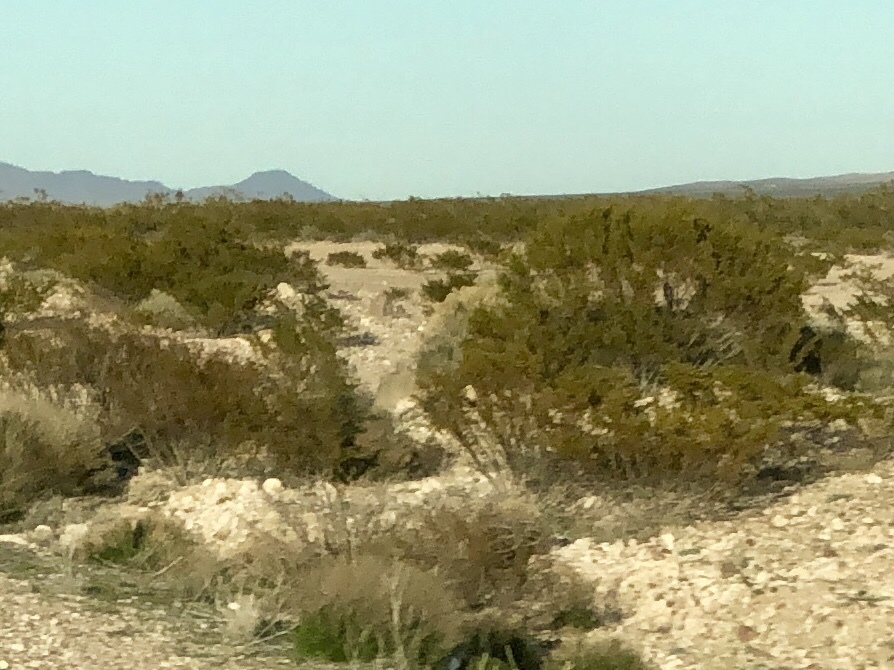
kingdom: Plantae
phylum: Tracheophyta
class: Magnoliopsida
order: Zygophyllales
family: Zygophyllaceae
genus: Larrea
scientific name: Larrea tridentata
